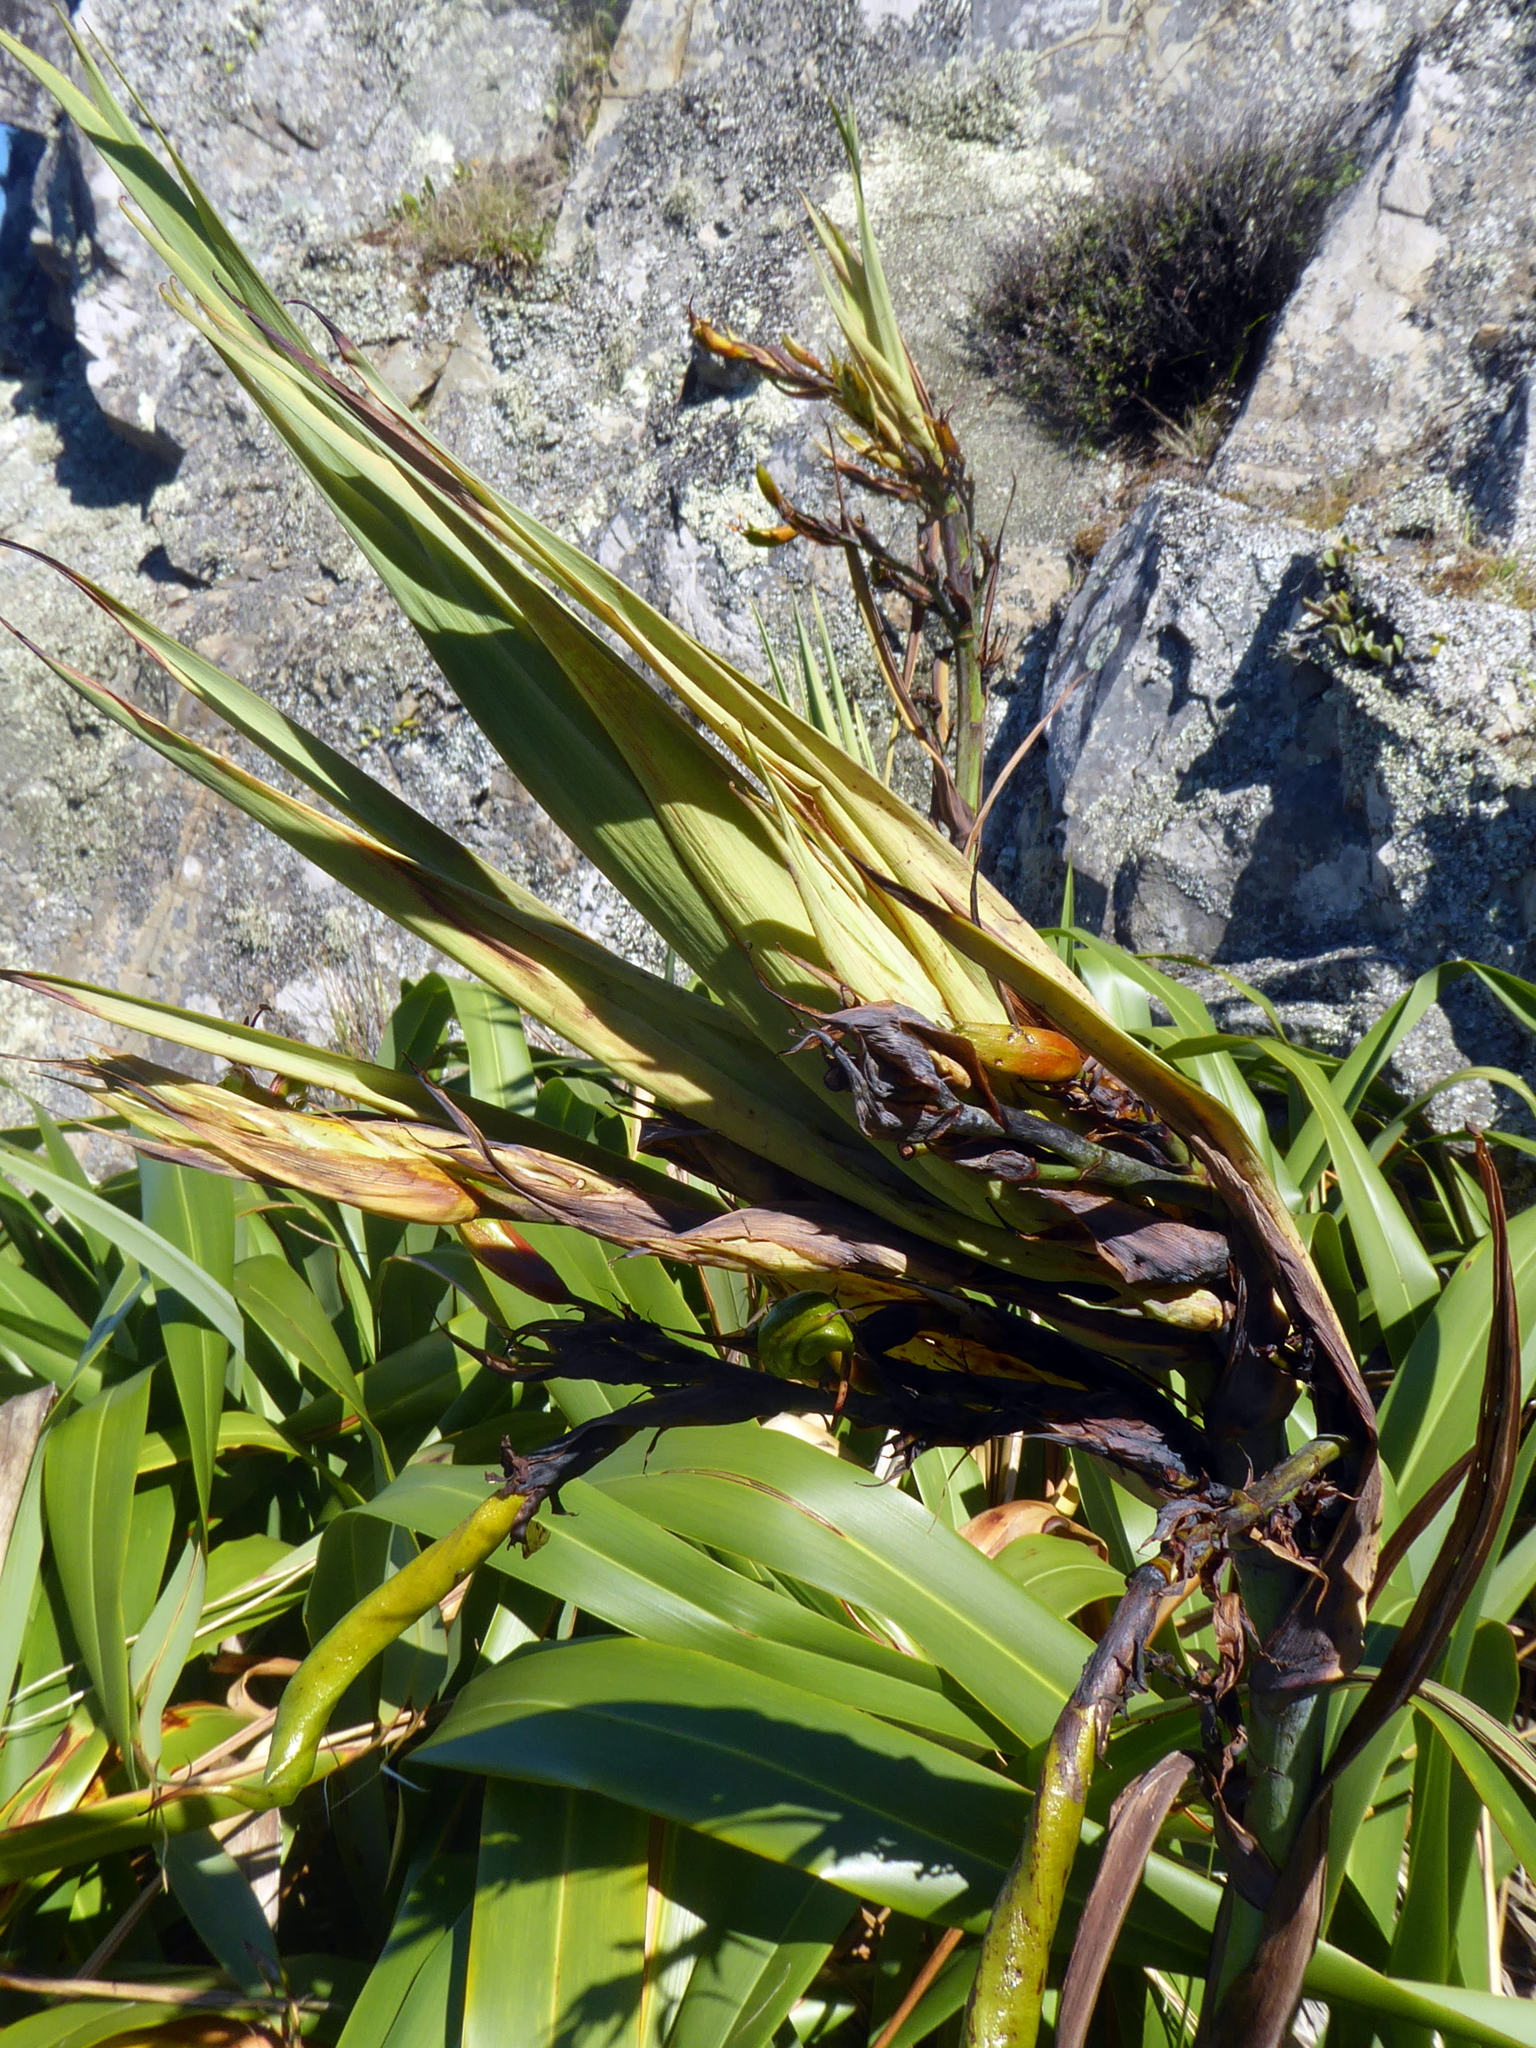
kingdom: Plantae
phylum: Tracheophyta
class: Liliopsida
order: Asparagales
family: Asphodelaceae
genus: Phormium
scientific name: Phormium colensoi
